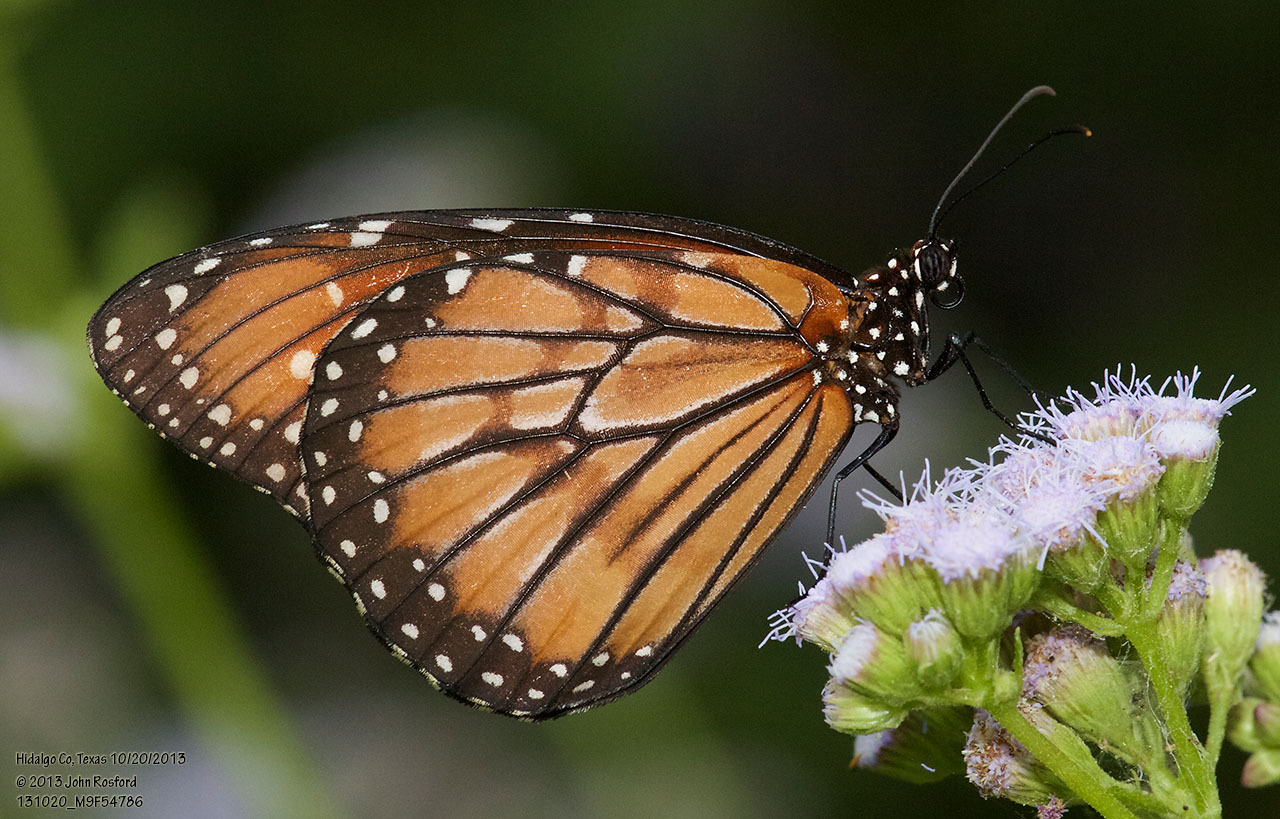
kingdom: Animalia
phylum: Arthropoda
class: Insecta
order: Lepidoptera
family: Nymphalidae
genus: Danaus
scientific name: Danaus eresimus
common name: Soldier
